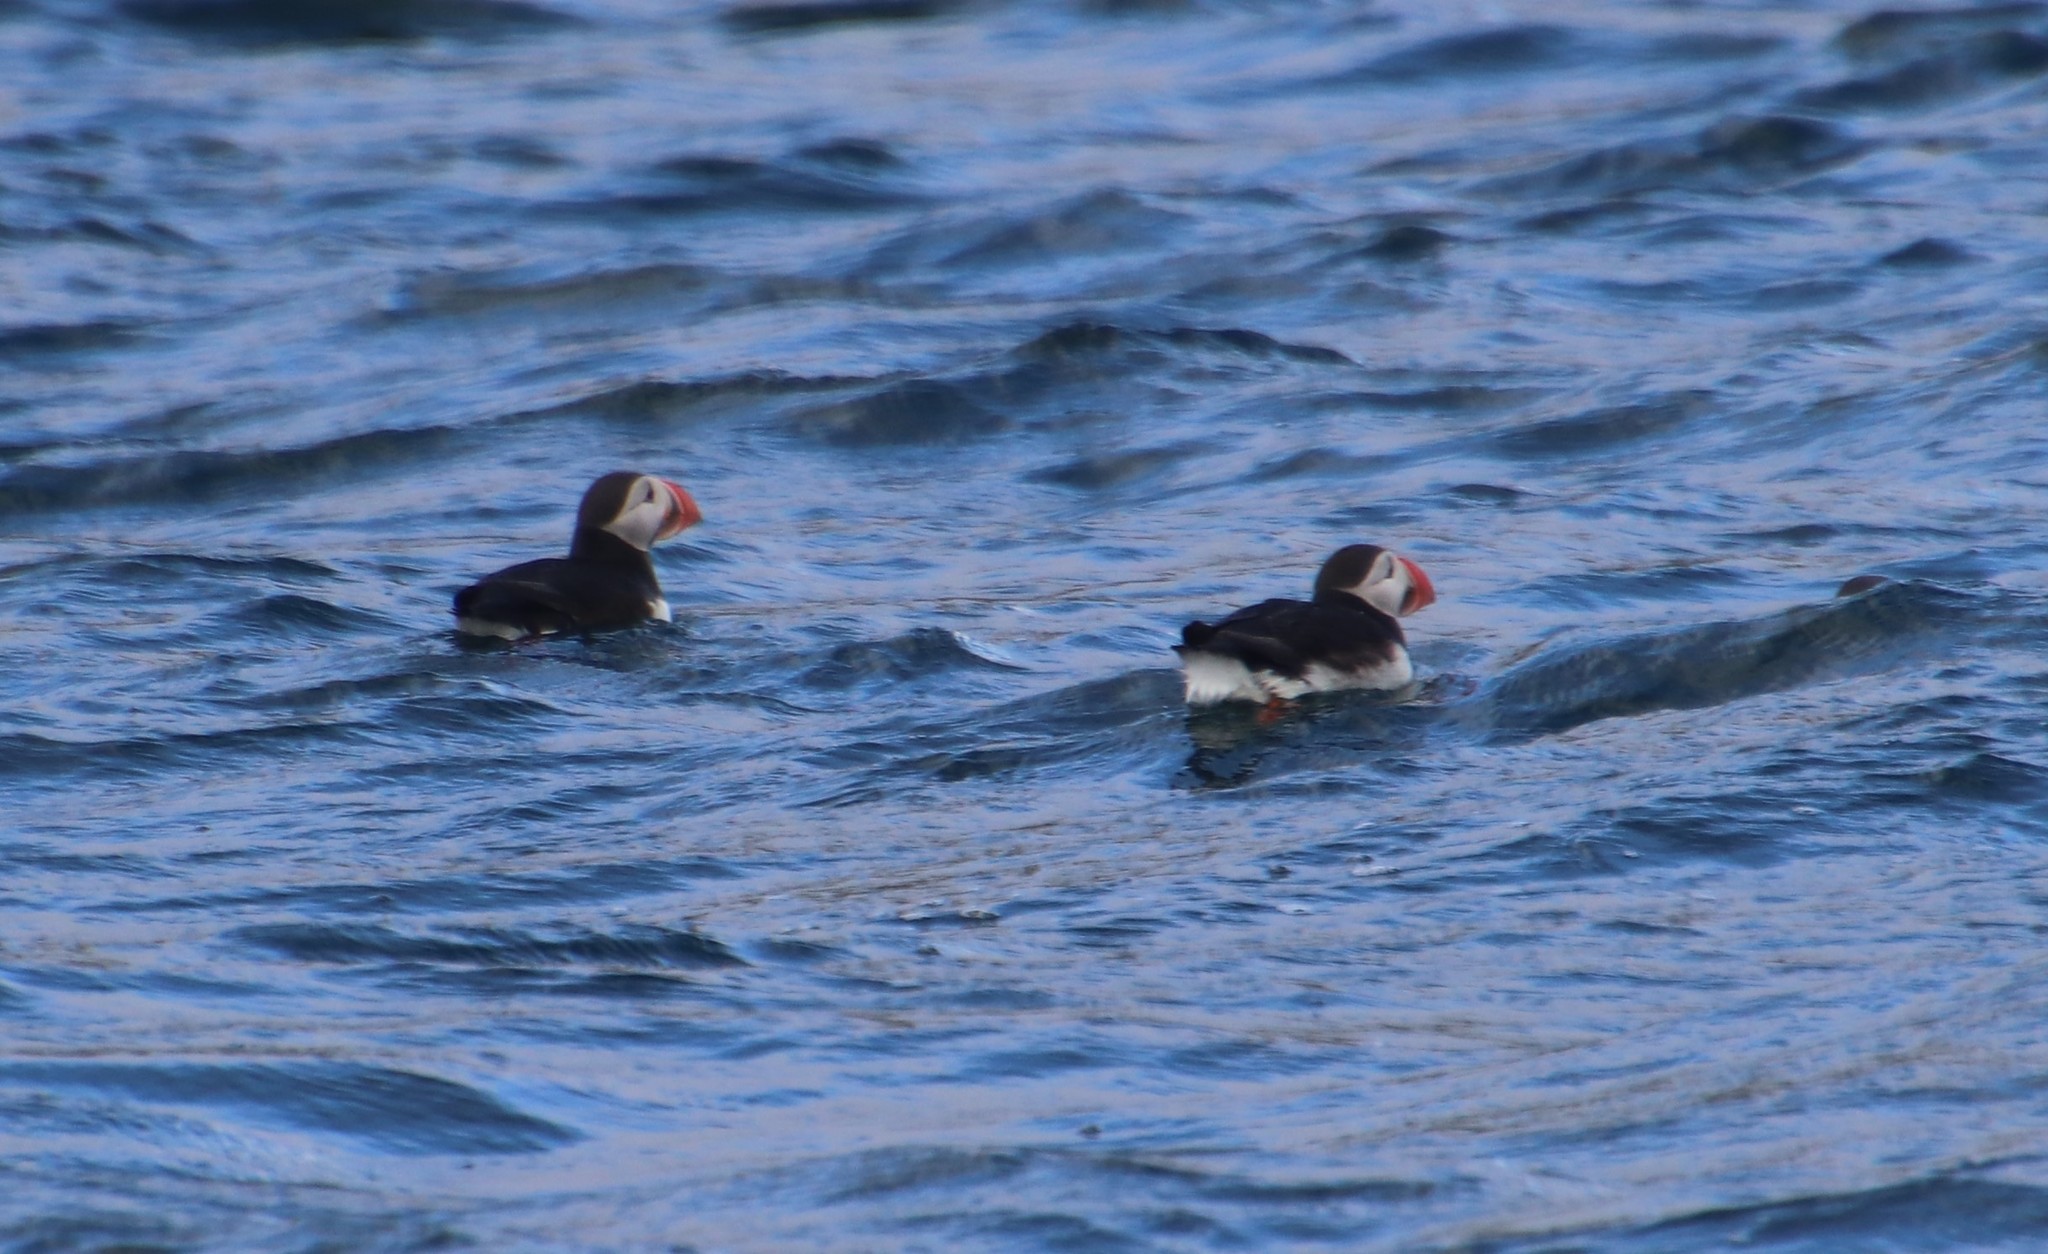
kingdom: Animalia
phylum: Chordata
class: Aves
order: Charadriiformes
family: Alcidae
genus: Fratercula
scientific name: Fratercula arctica
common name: Atlantic puffin
